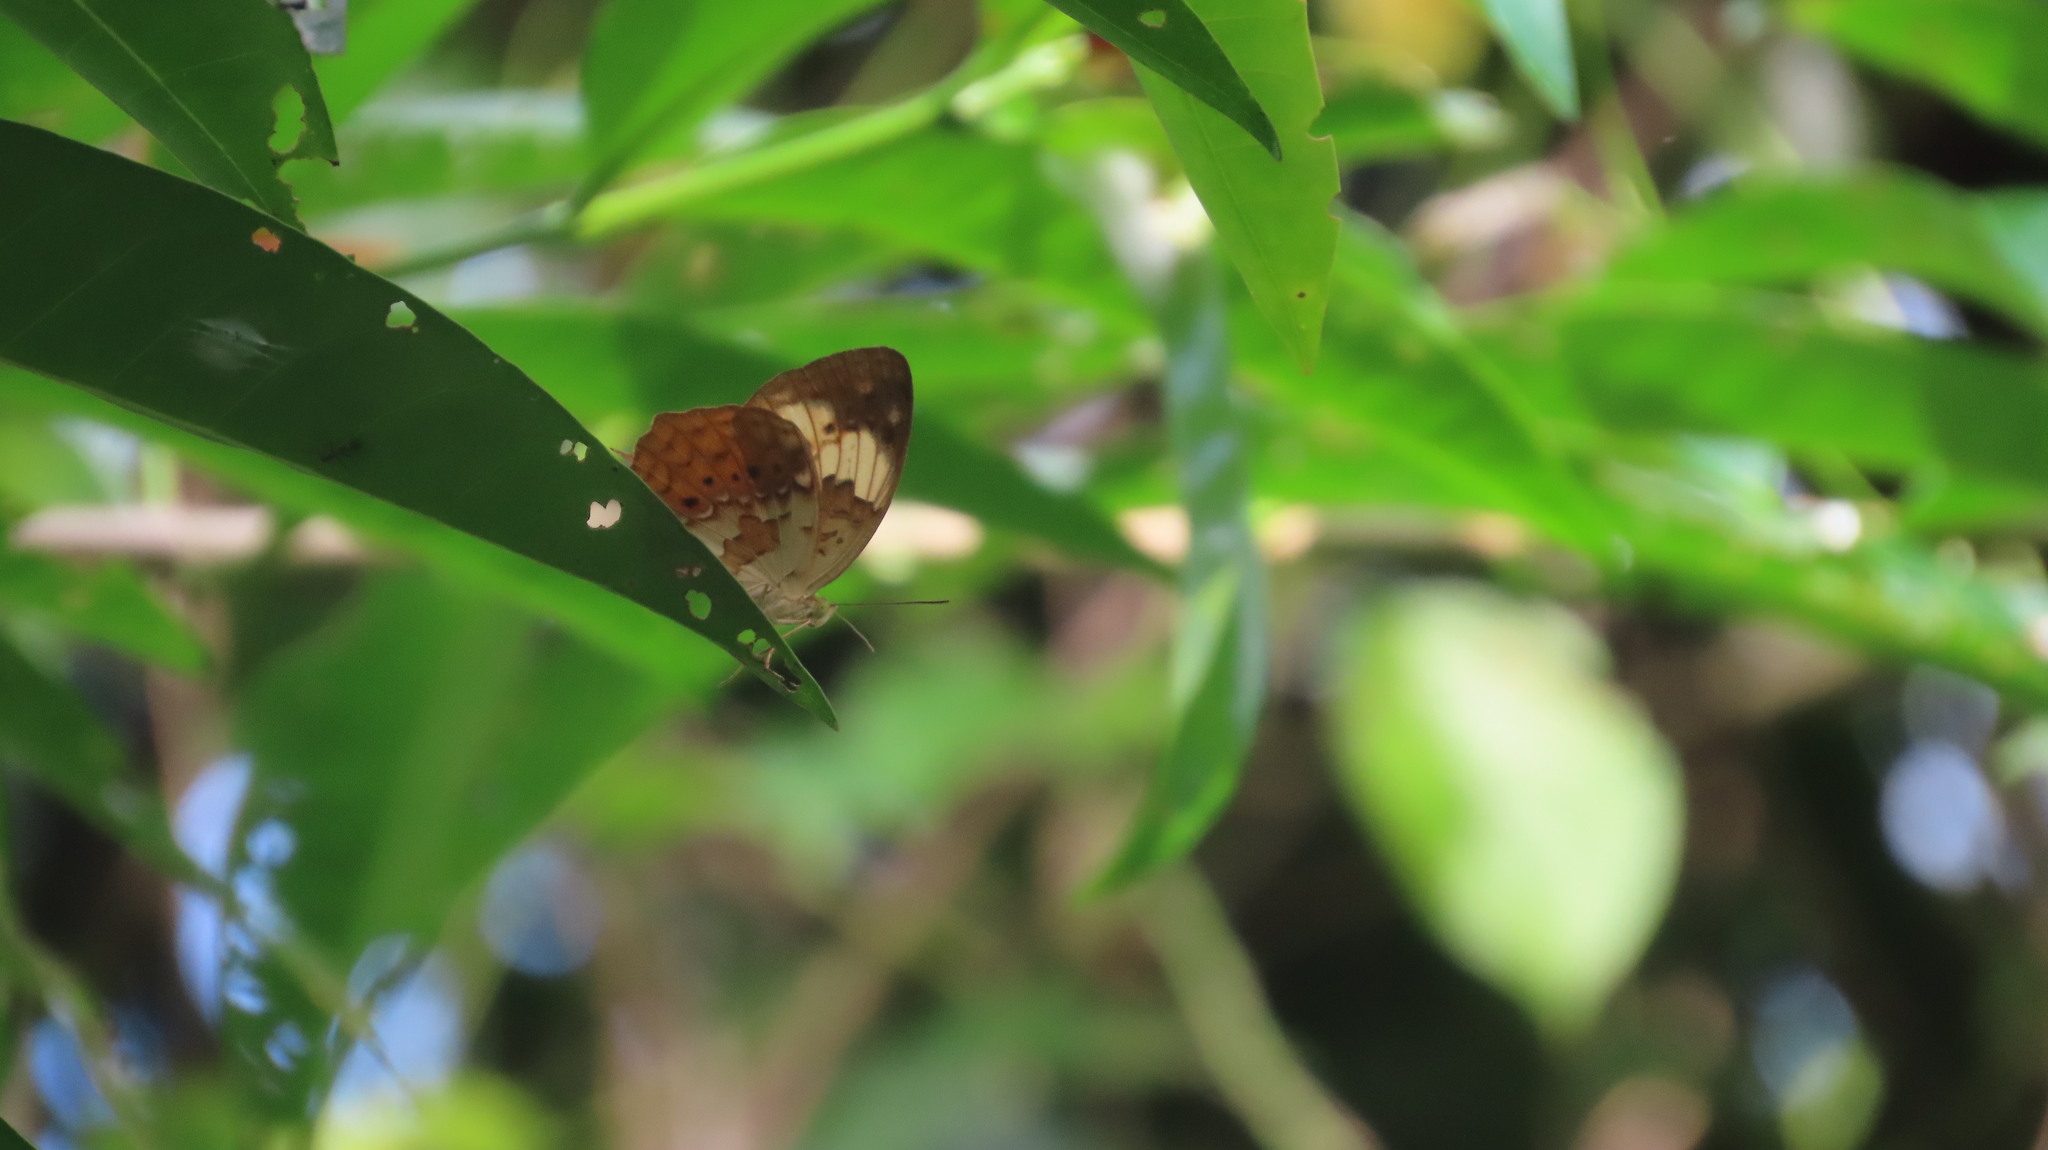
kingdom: Animalia
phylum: Arthropoda
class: Insecta
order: Lepidoptera
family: Nymphalidae
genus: Cupha
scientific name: Cupha erymanthis
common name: Rustic
